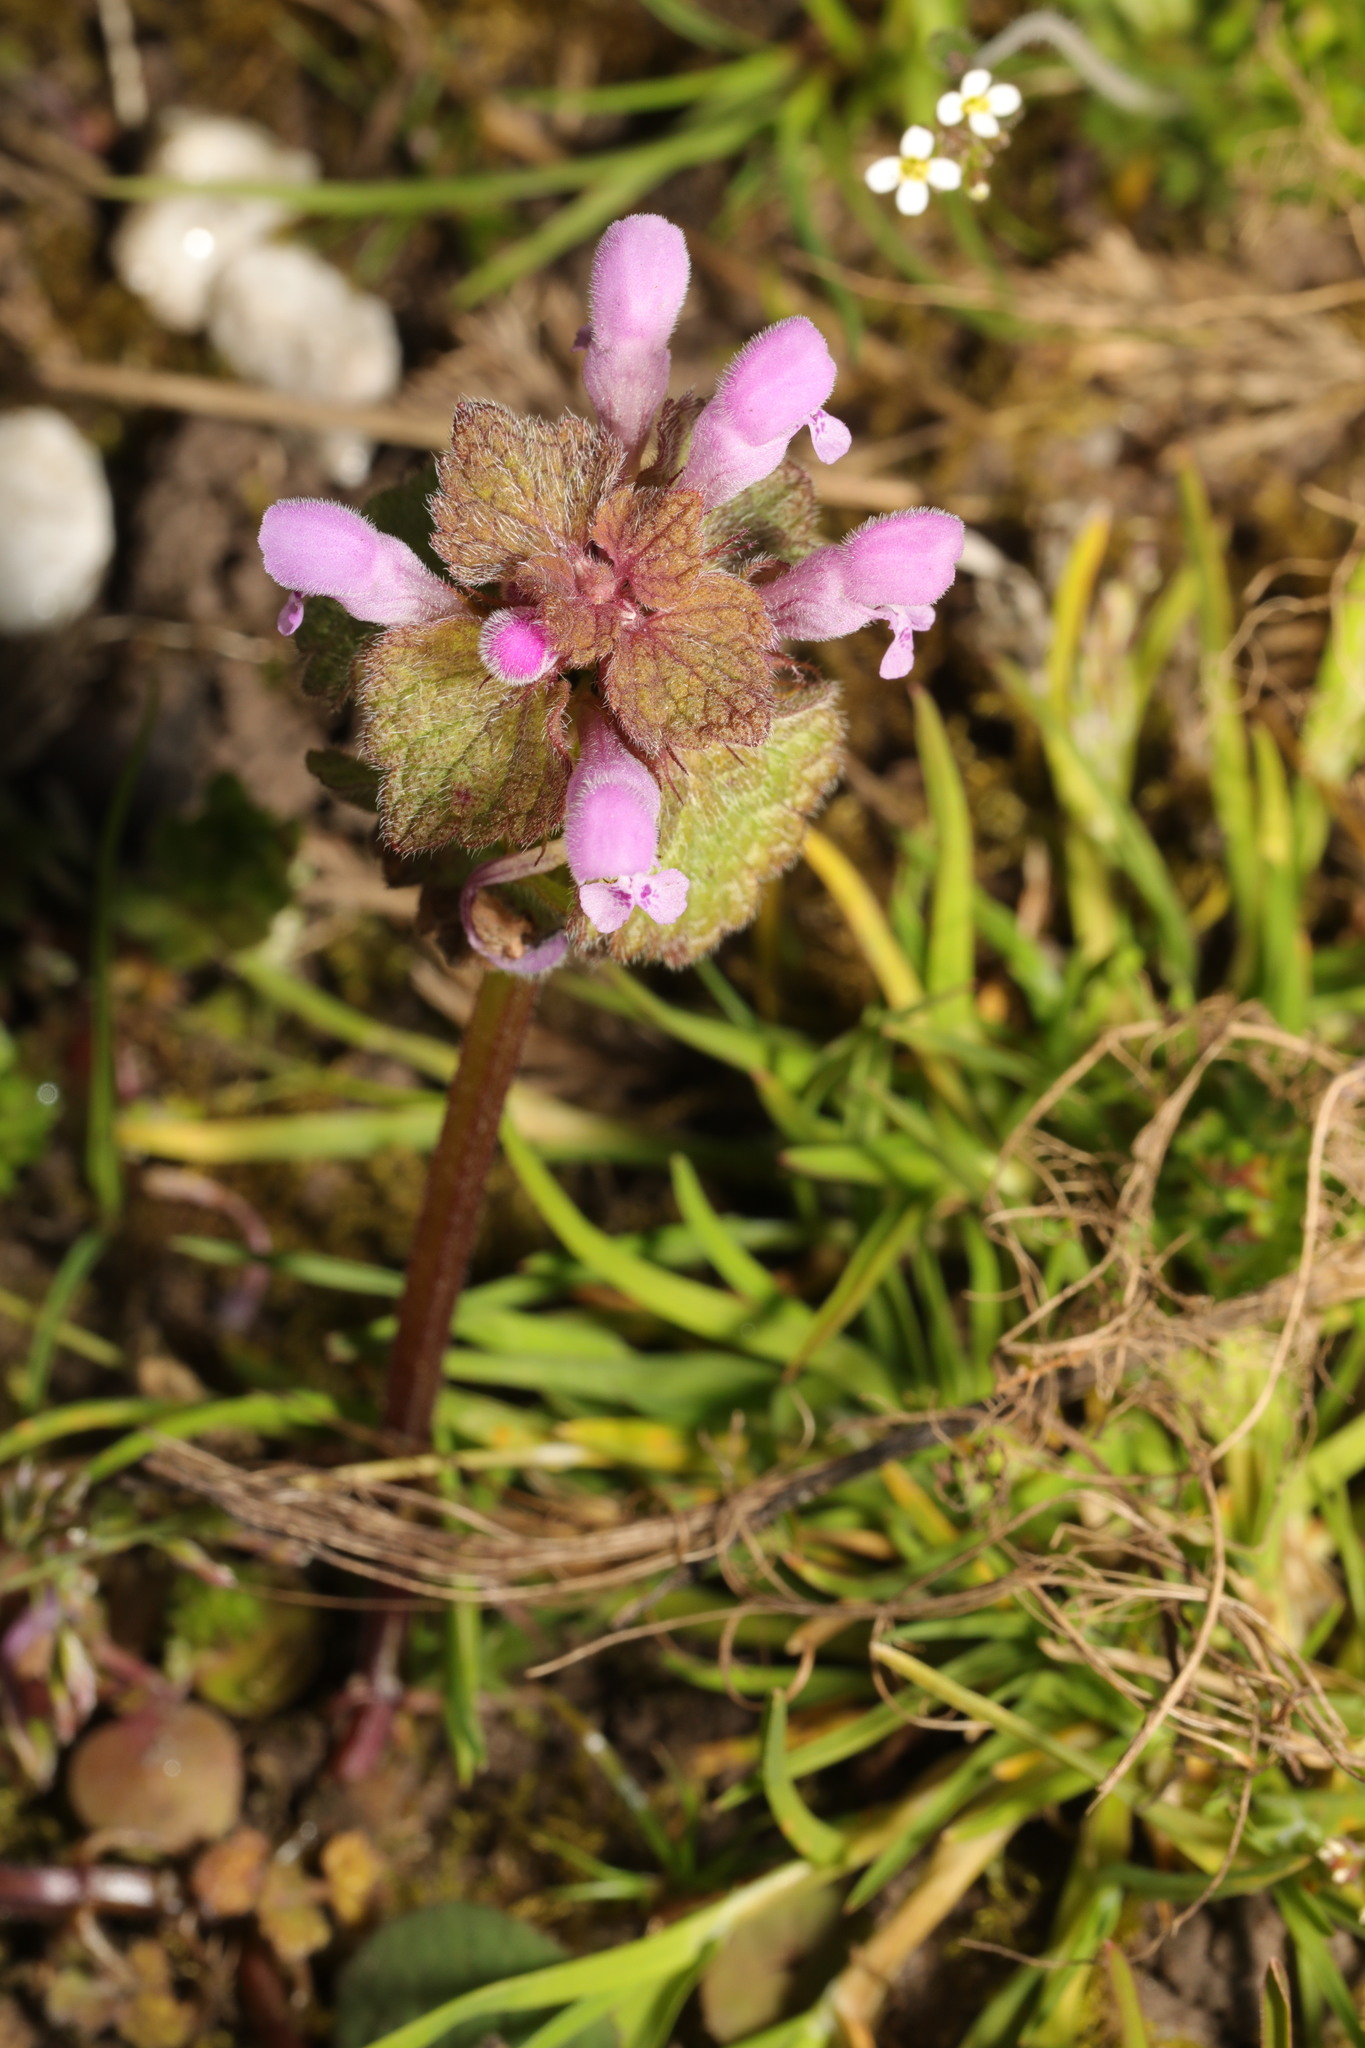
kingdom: Plantae
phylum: Tracheophyta
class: Magnoliopsida
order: Lamiales
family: Lamiaceae
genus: Lamium
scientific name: Lamium purpureum
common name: Red dead-nettle
